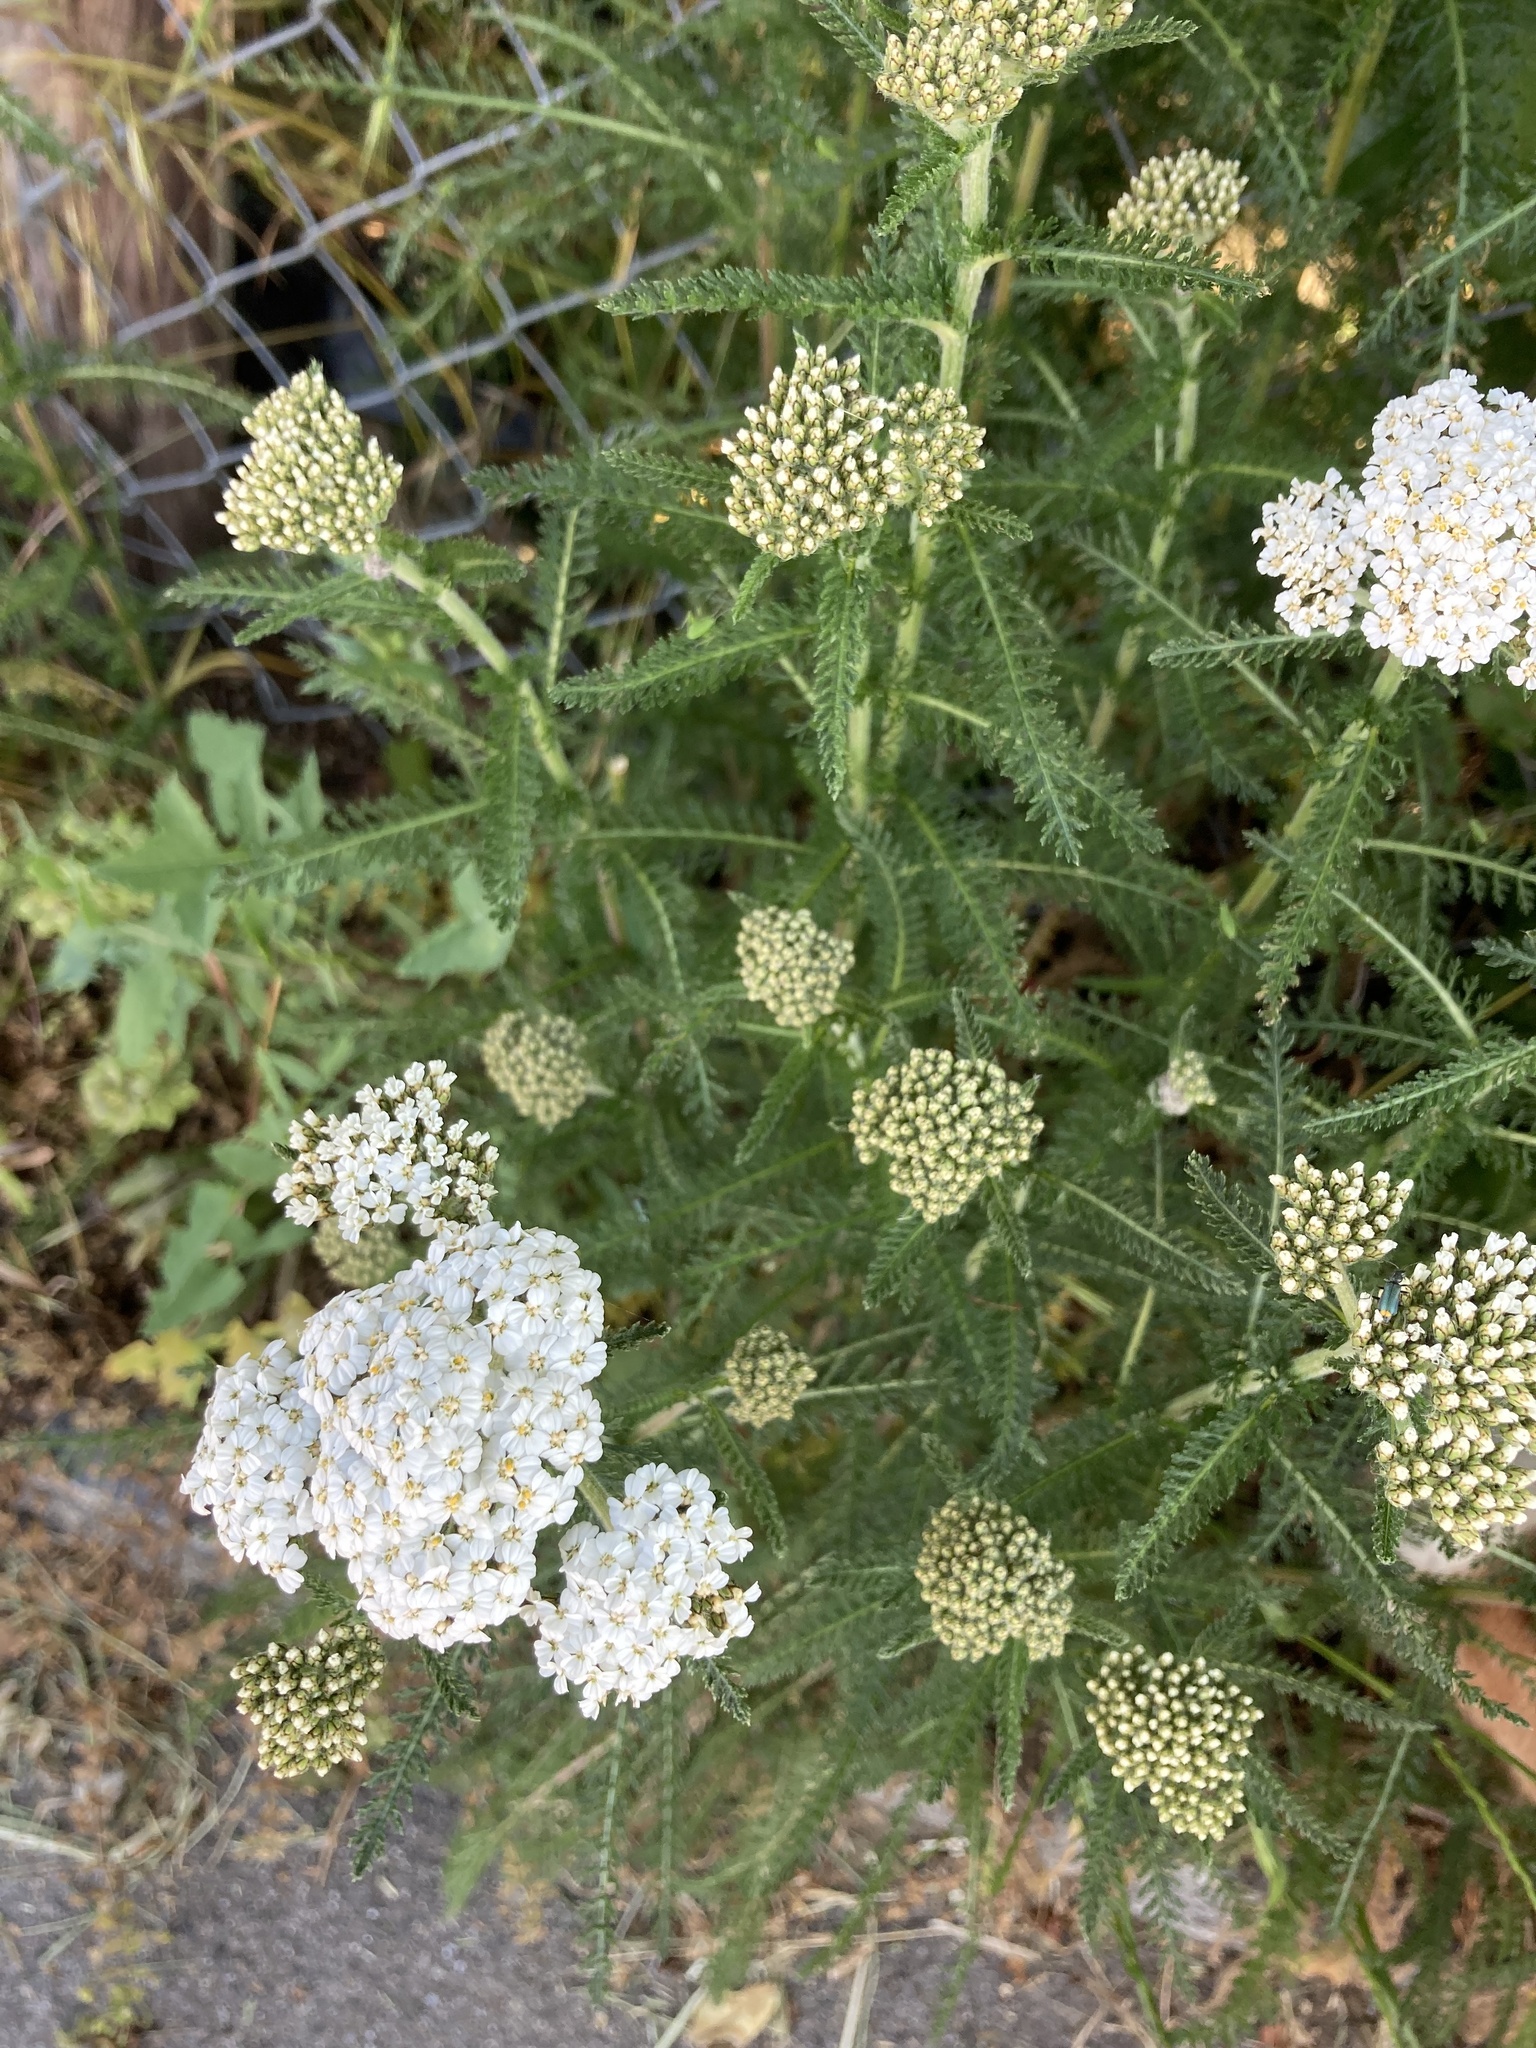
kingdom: Plantae
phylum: Tracheophyta
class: Magnoliopsida
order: Asterales
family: Asteraceae
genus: Achillea
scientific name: Achillea millefolium
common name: Yarrow
